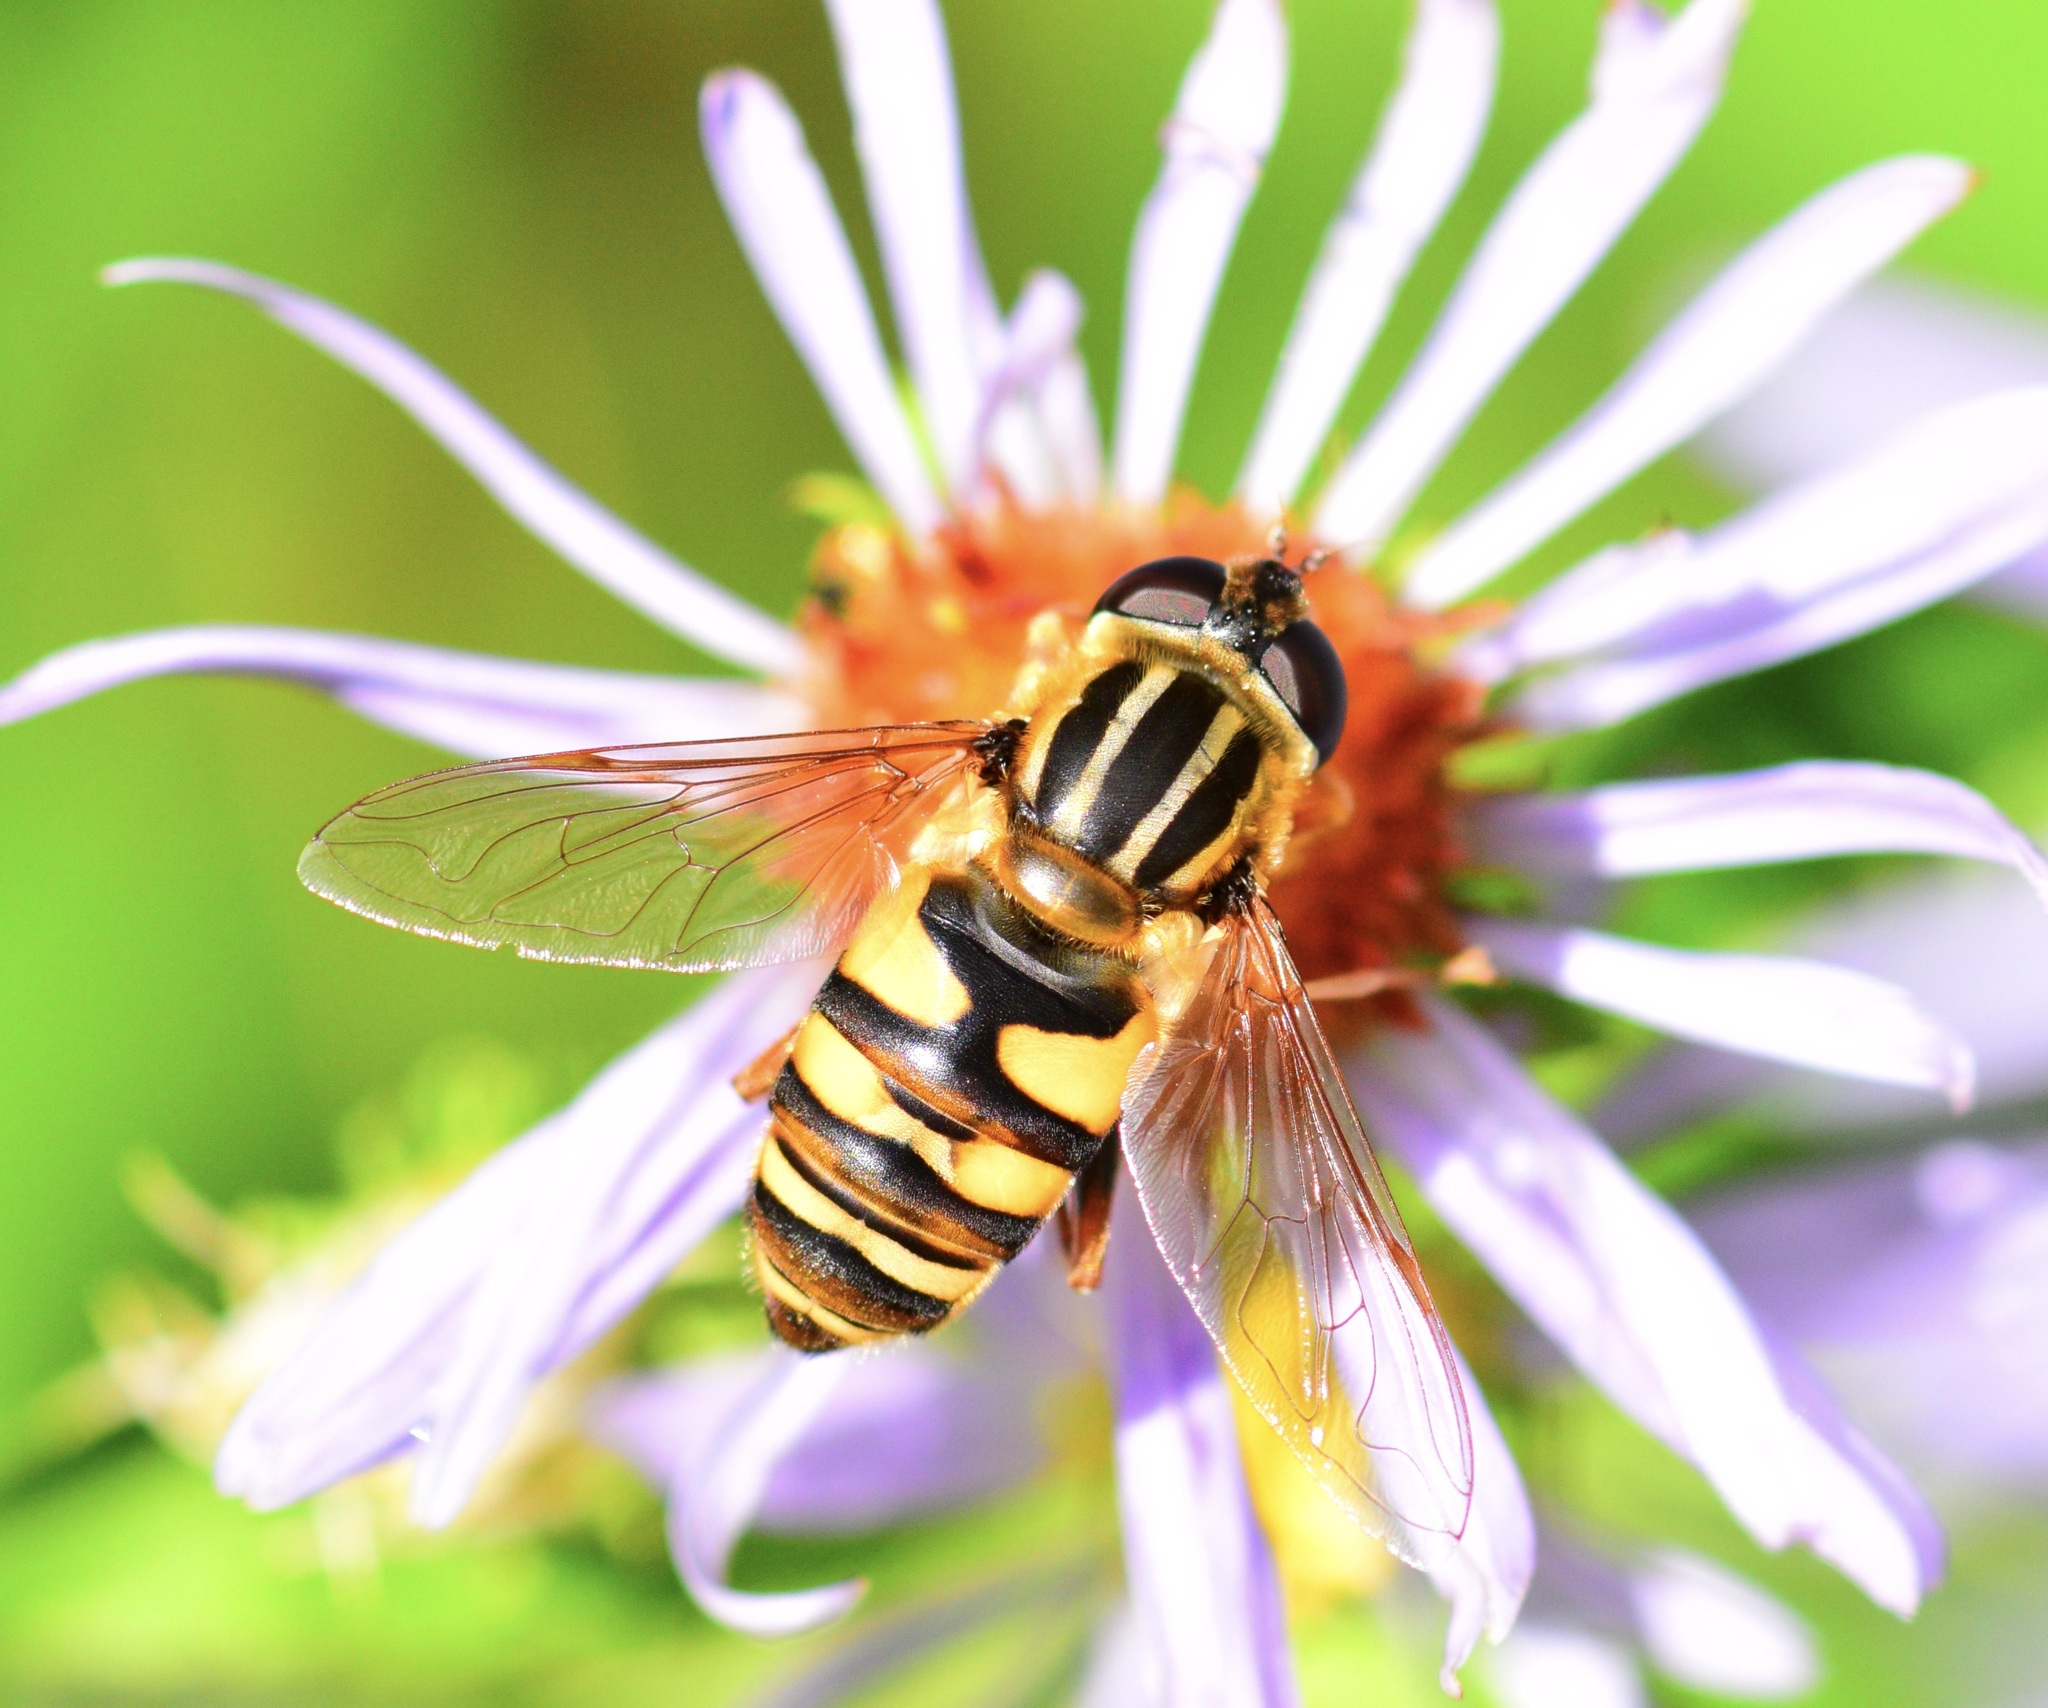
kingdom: Animalia
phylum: Arthropoda
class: Insecta
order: Diptera
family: Syrphidae
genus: Helophilus
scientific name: Helophilus fasciatus
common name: Narrow-headed marsh fly
